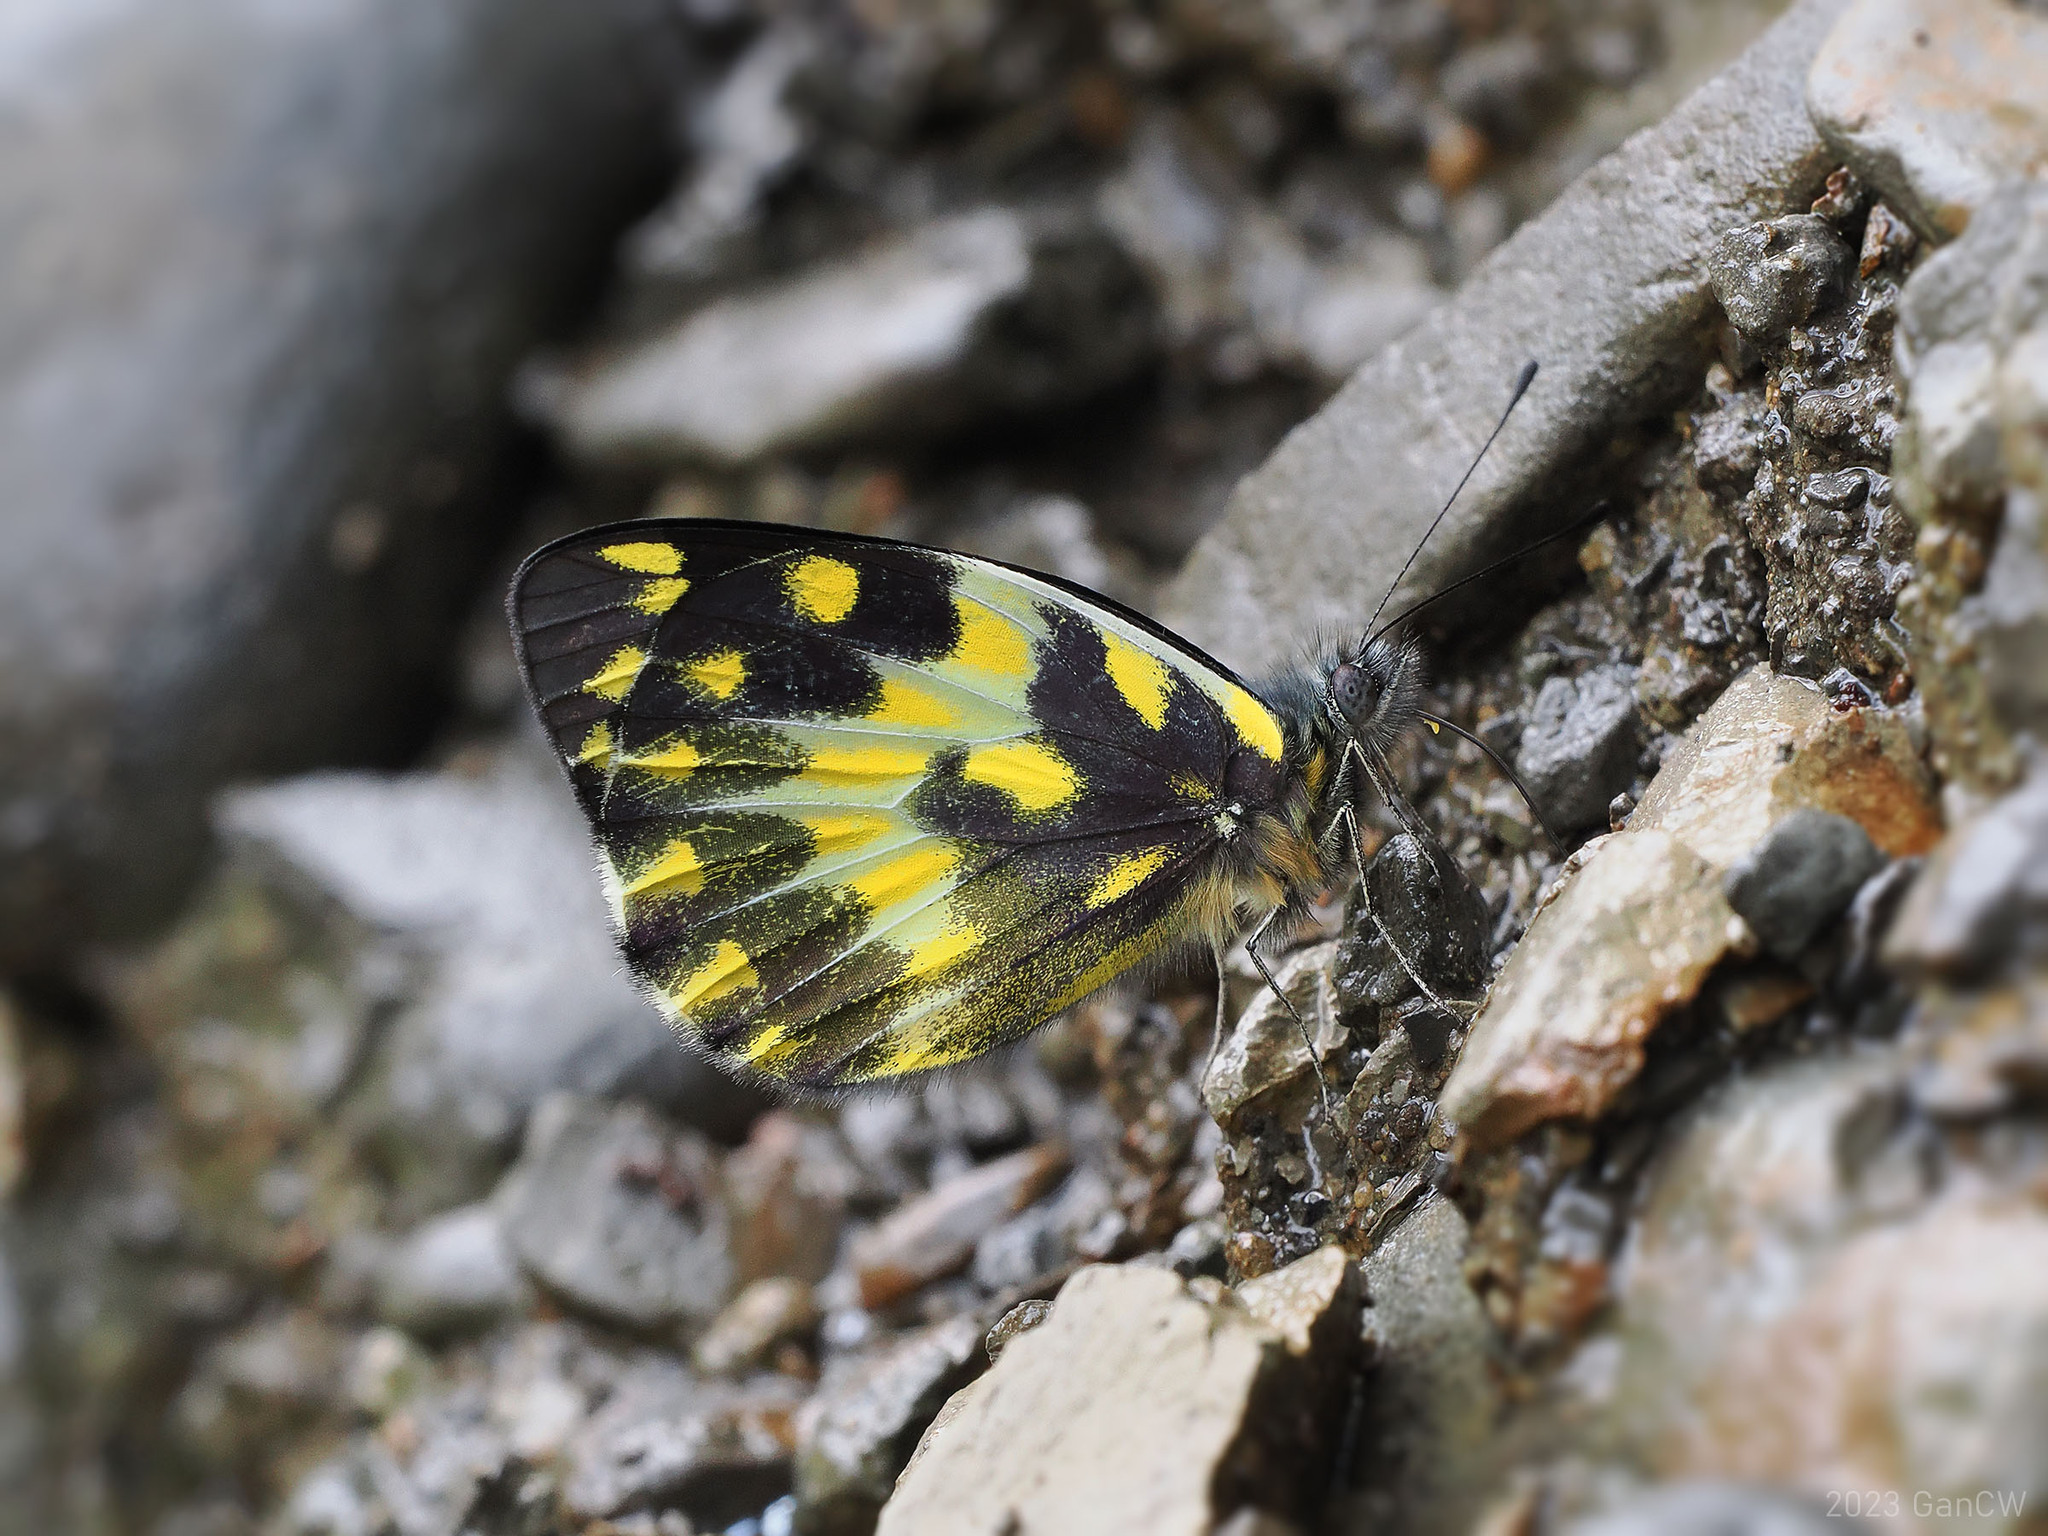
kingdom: Animalia
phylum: Arthropoda
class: Insecta
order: Lepidoptera
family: Pieridae
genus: Delias
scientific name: Delias pheres
